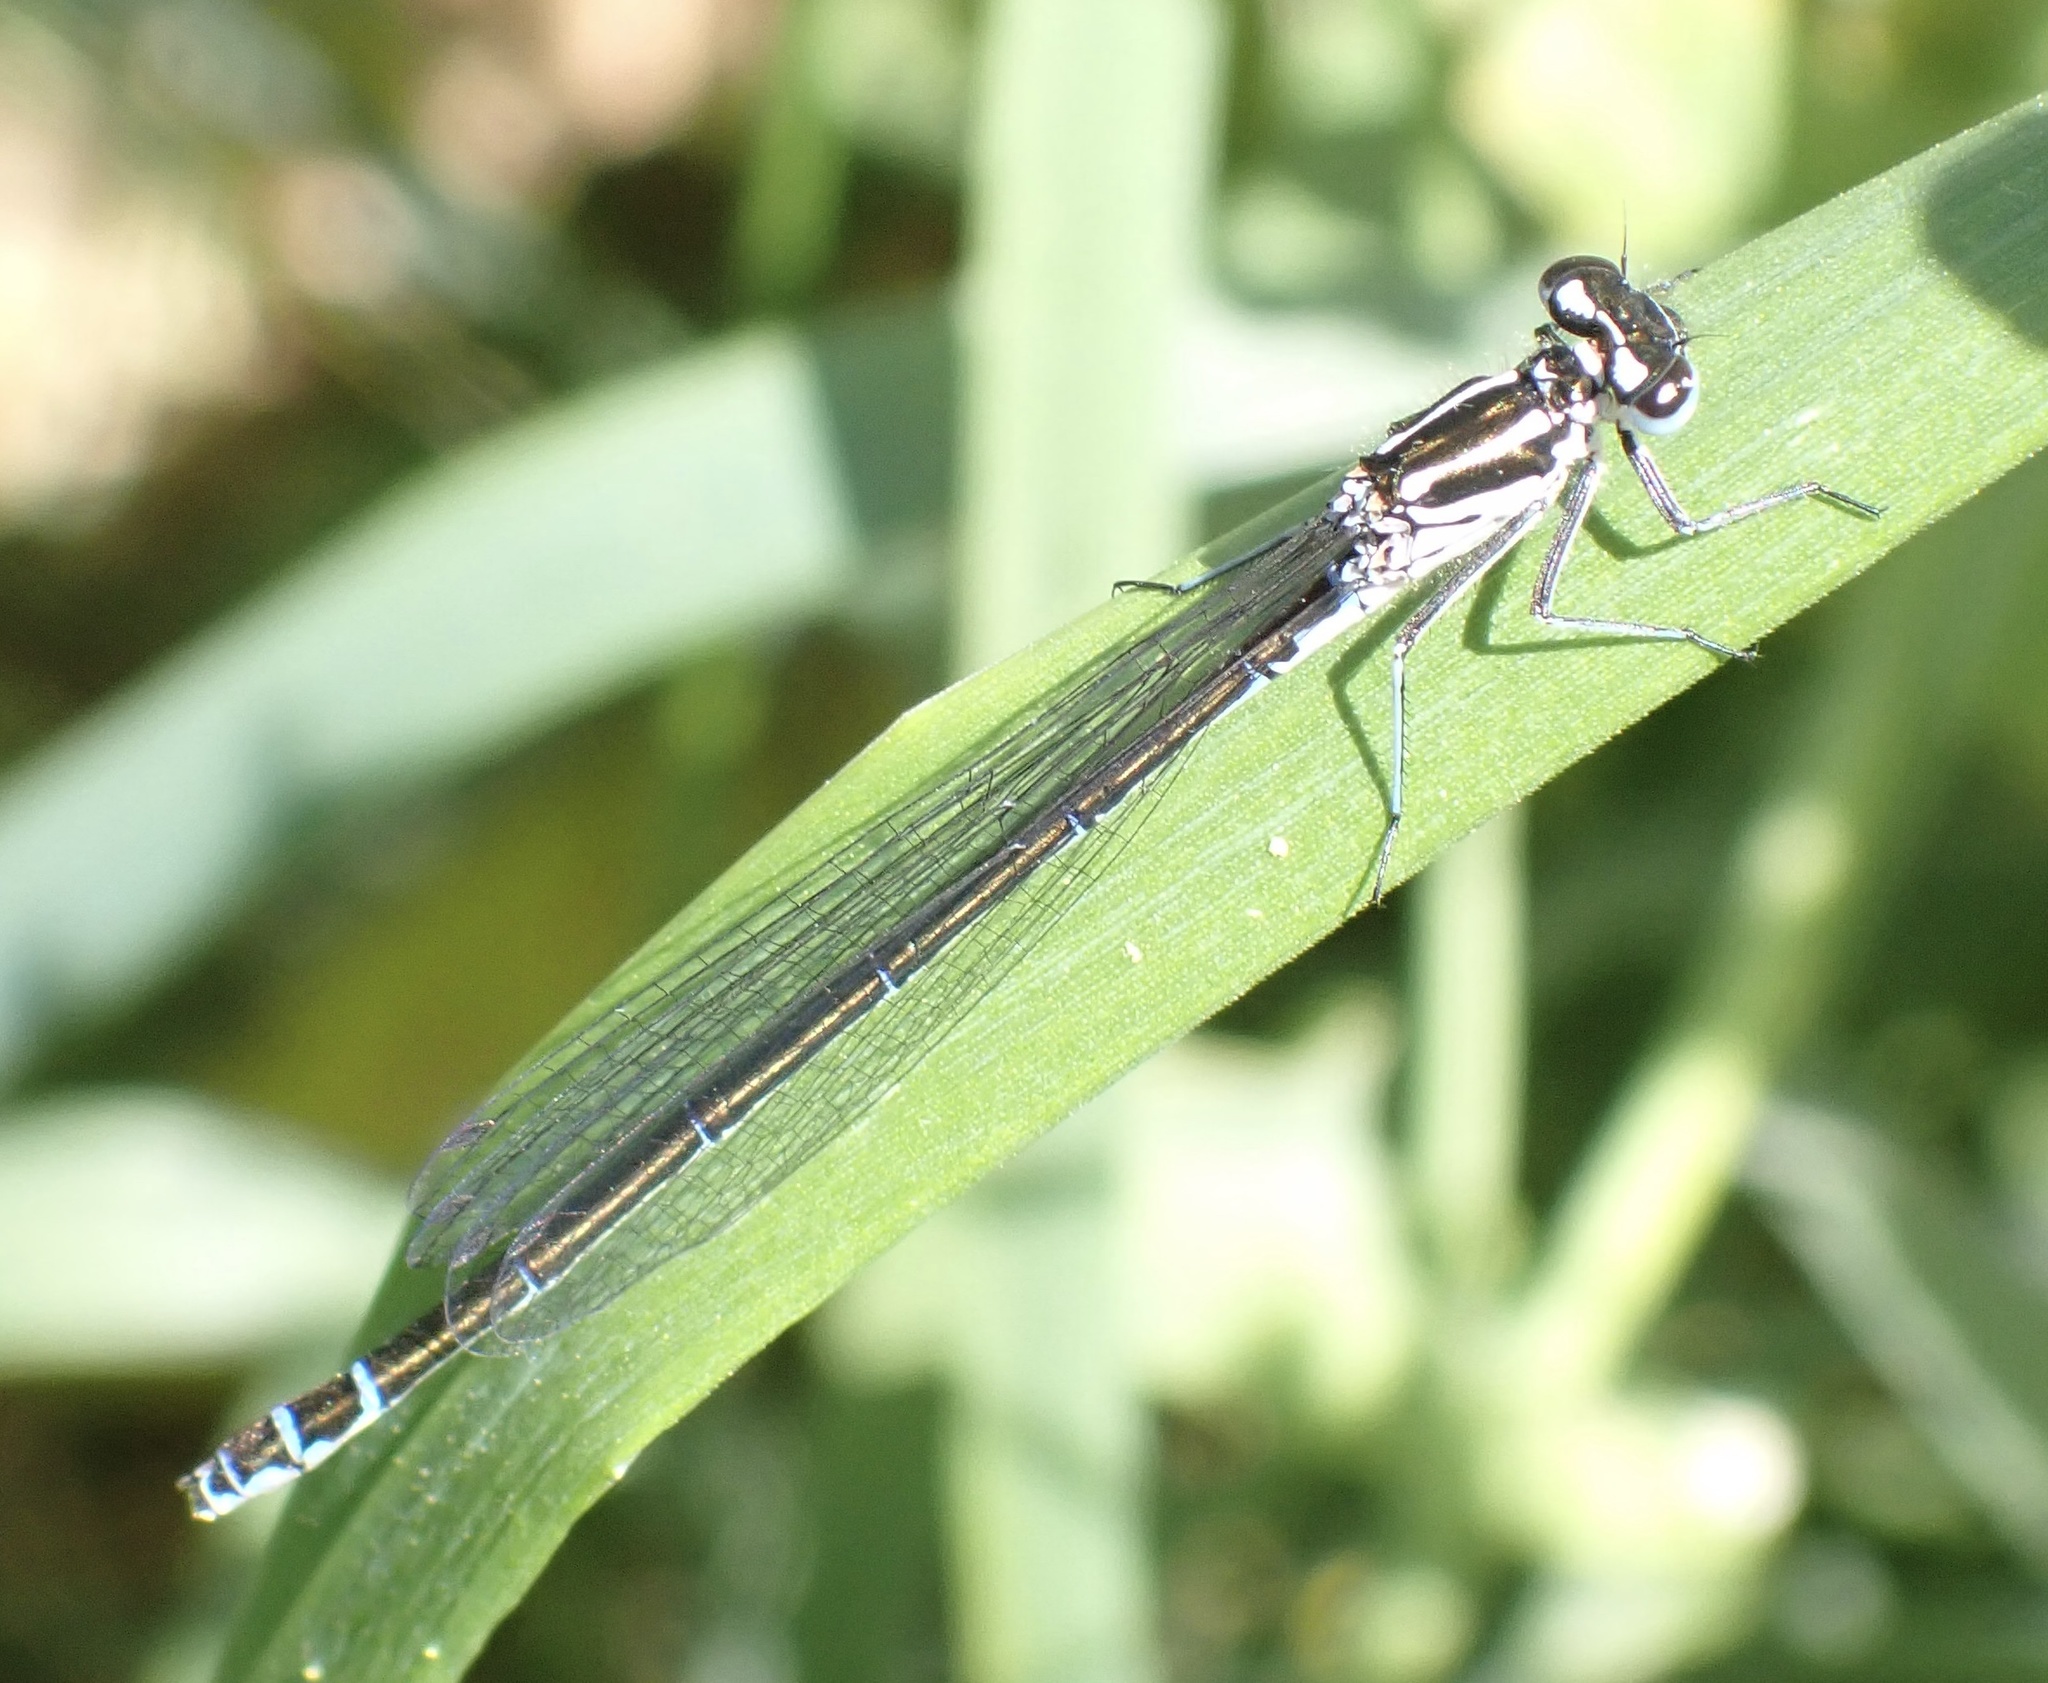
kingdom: Animalia
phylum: Arthropoda
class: Insecta
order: Odonata
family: Coenagrionidae
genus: Coenagrion
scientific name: Coenagrion pulchellum
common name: Variable bluet
